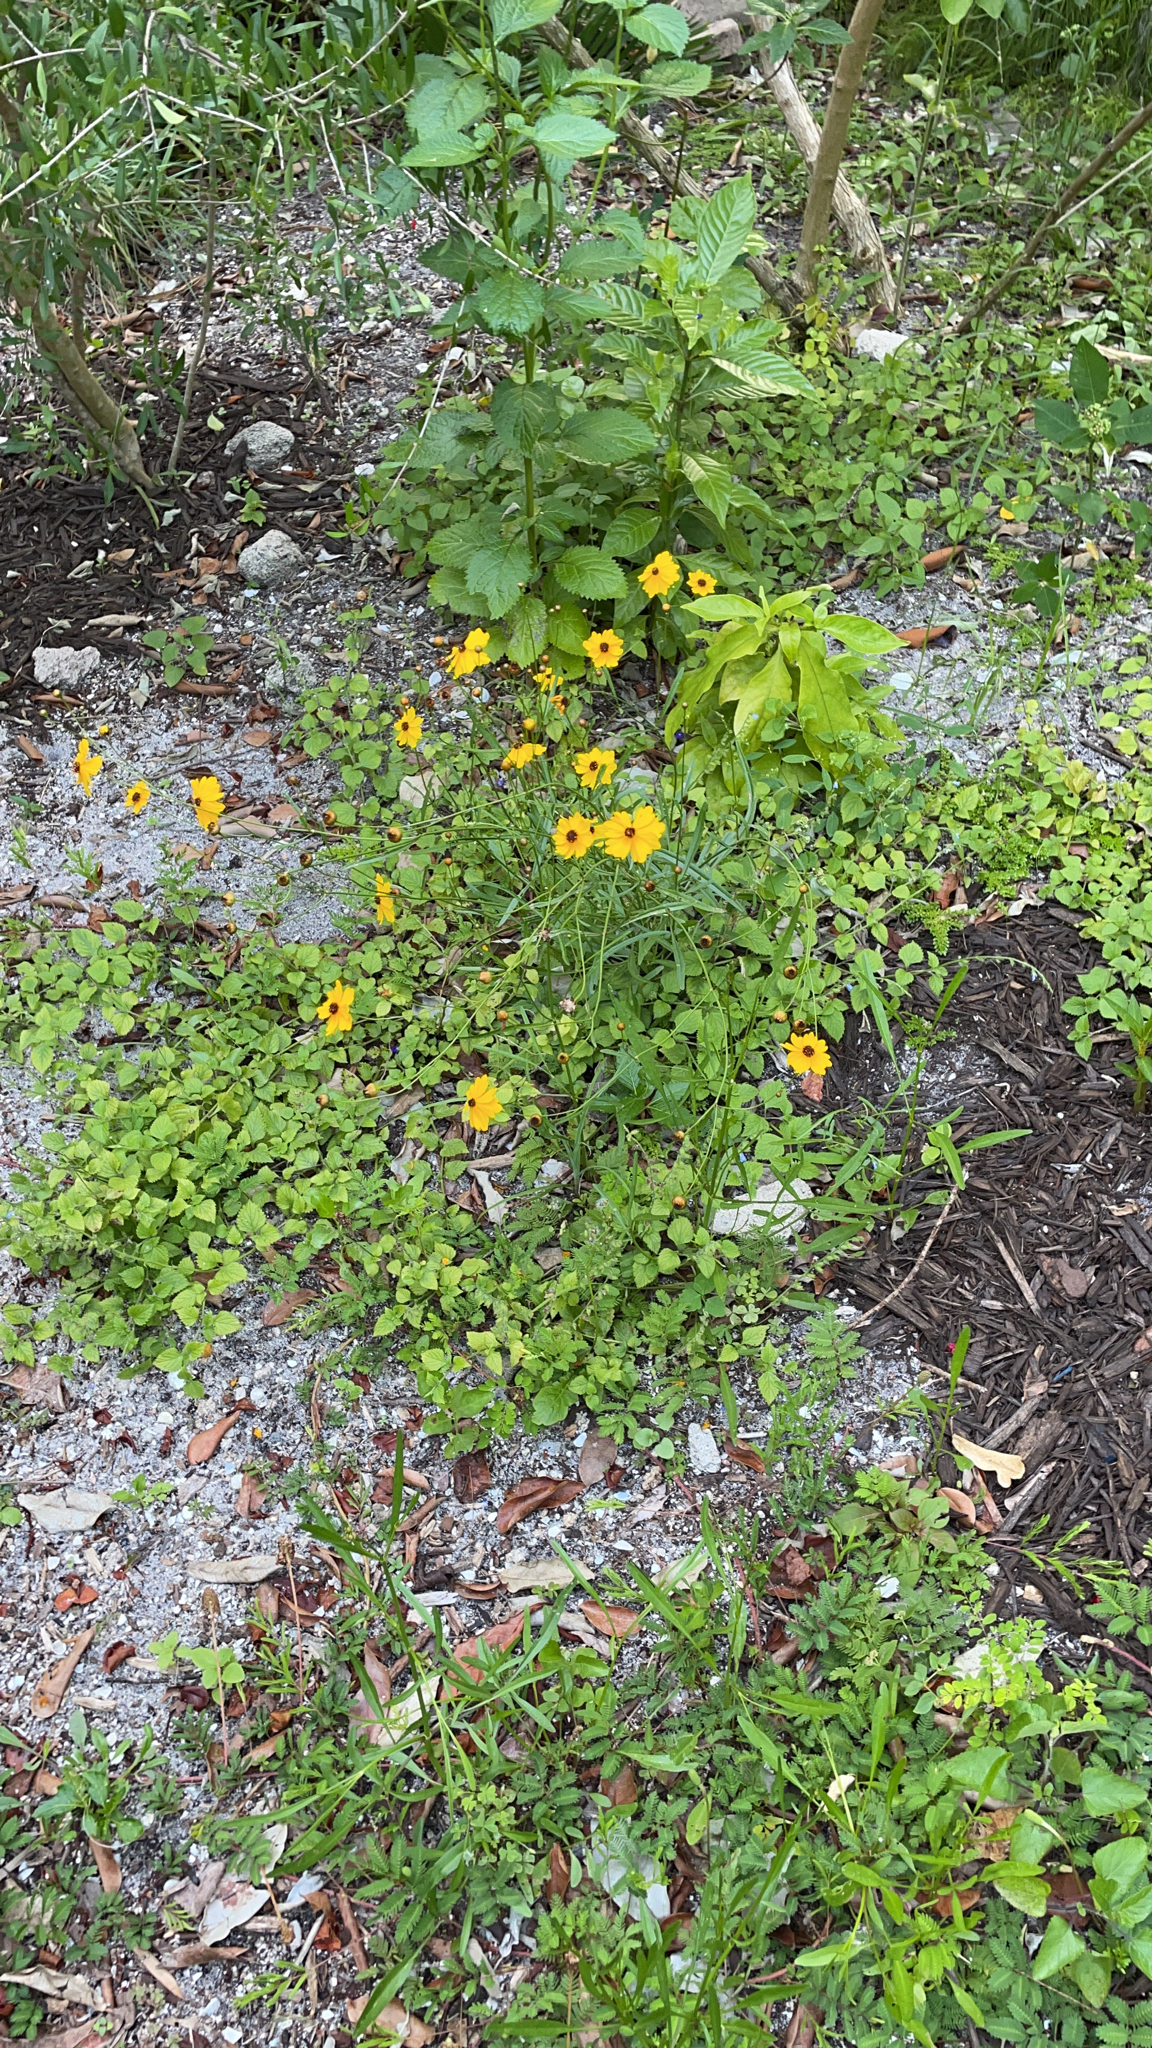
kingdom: Plantae
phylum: Tracheophyta
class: Magnoliopsida
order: Asterales
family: Asteraceae
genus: Coreopsis
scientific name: Coreopsis leavenworthii
